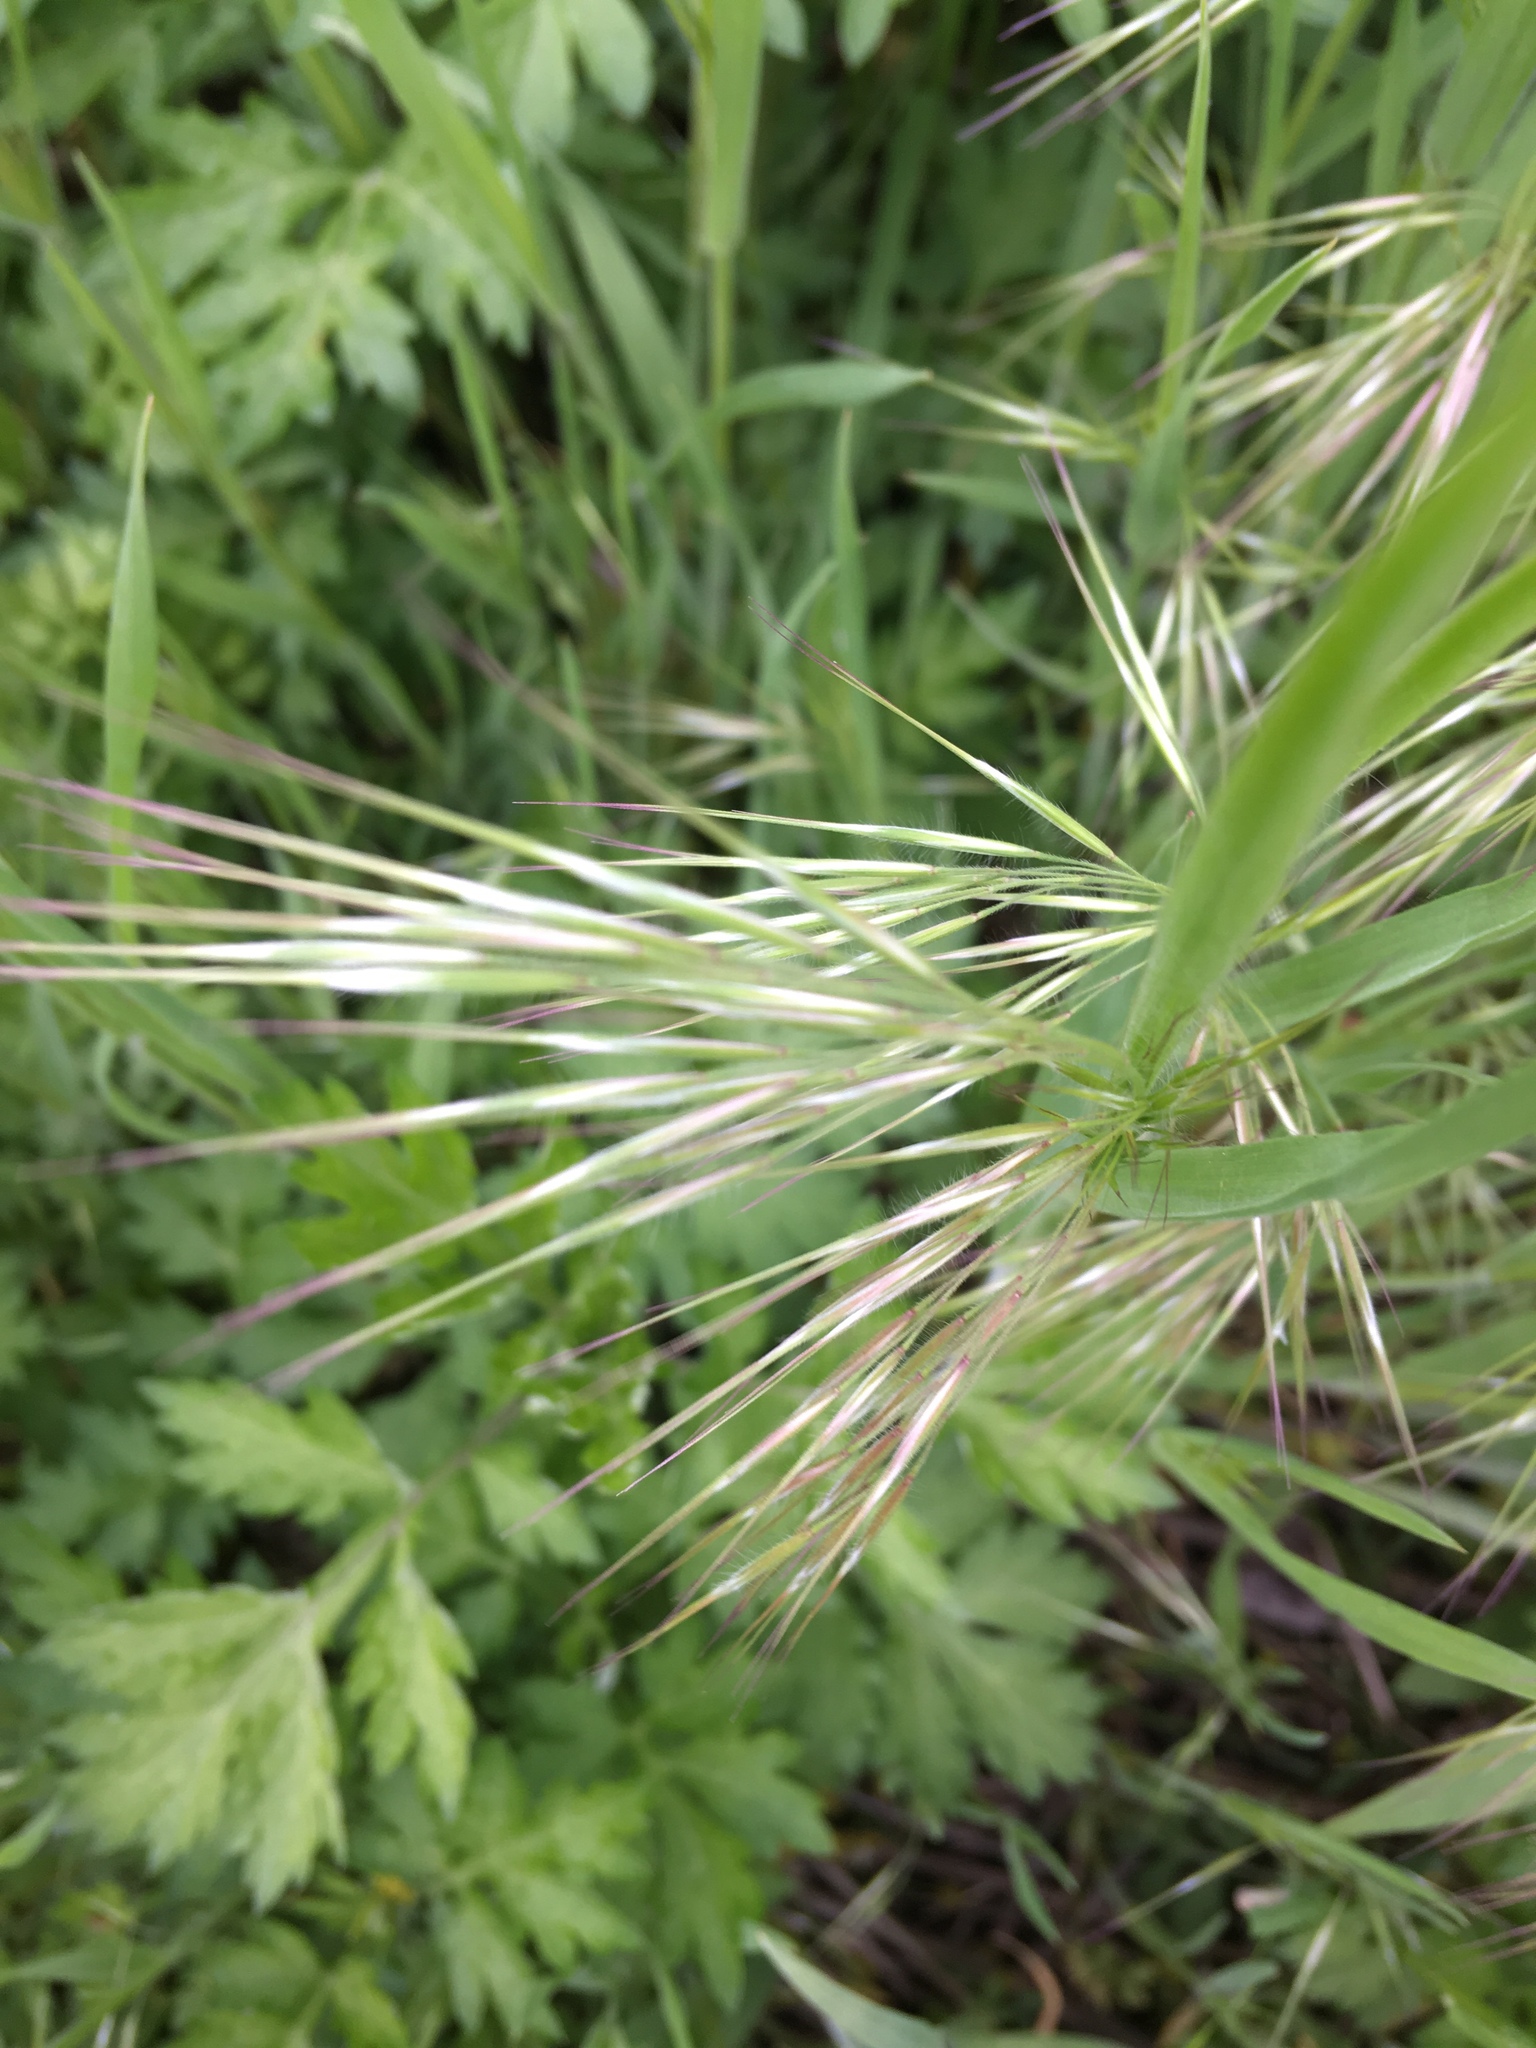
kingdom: Plantae
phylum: Tracheophyta
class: Liliopsida
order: Poales
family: Poaceae
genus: Bromus
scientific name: Bromus tectorum
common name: Cheatgrass
